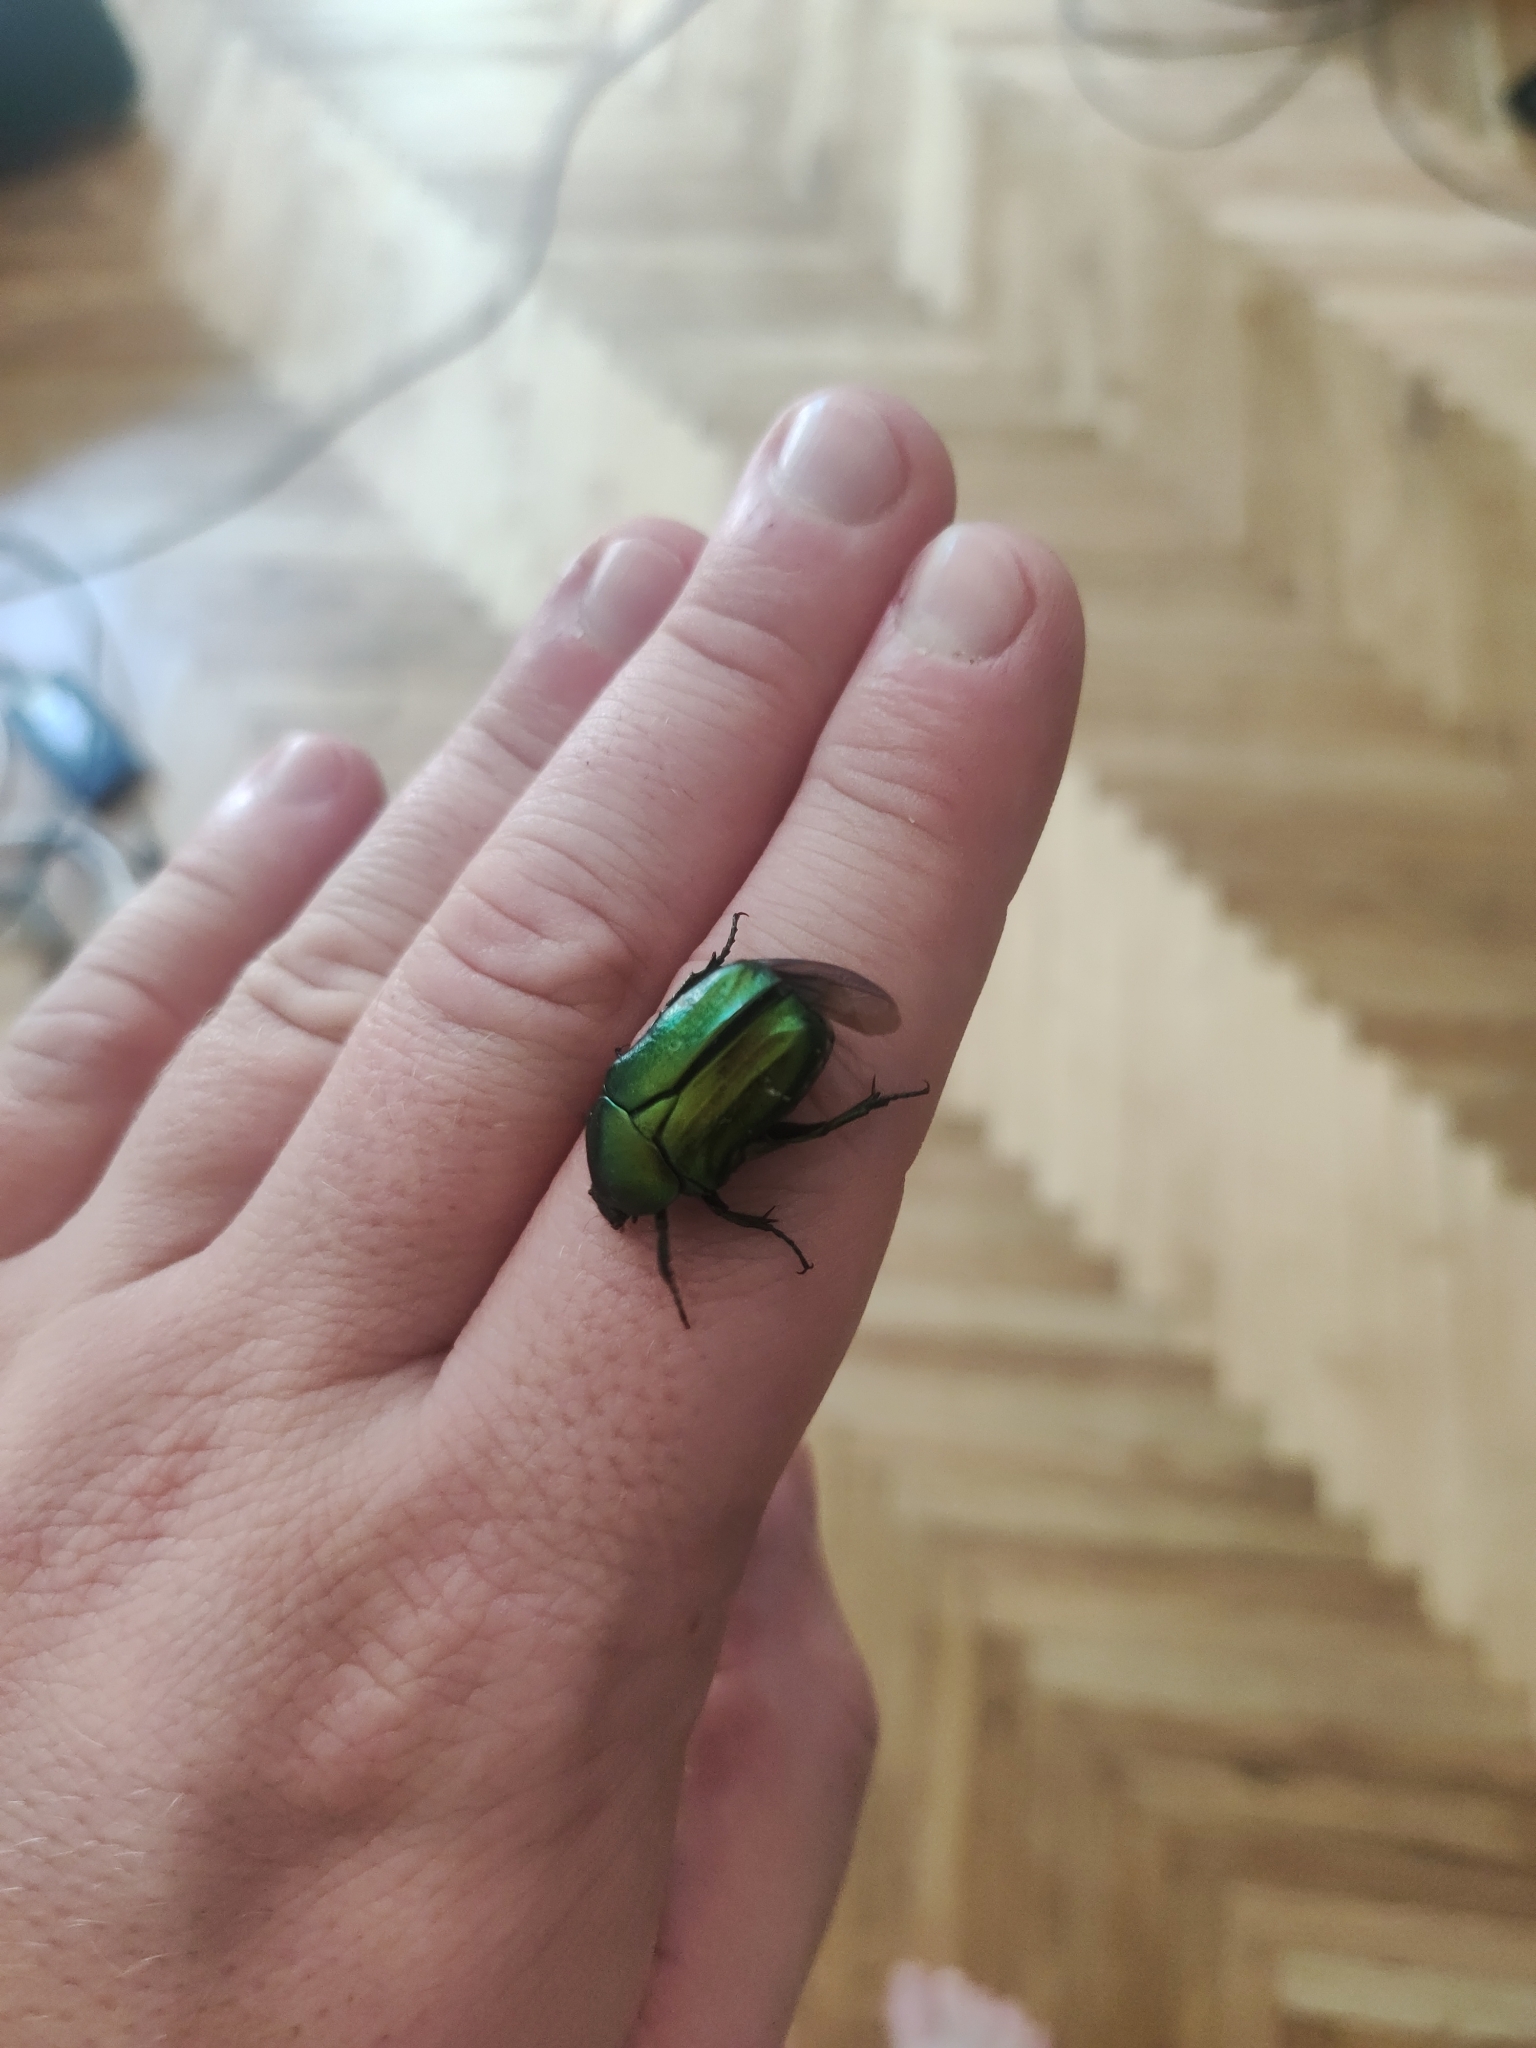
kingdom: Animalia
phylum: Arthropoda
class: Insecta
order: Coleoptera
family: Scarabaeidae
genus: Cetonia
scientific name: Cetonia aurata
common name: Rose chafer
